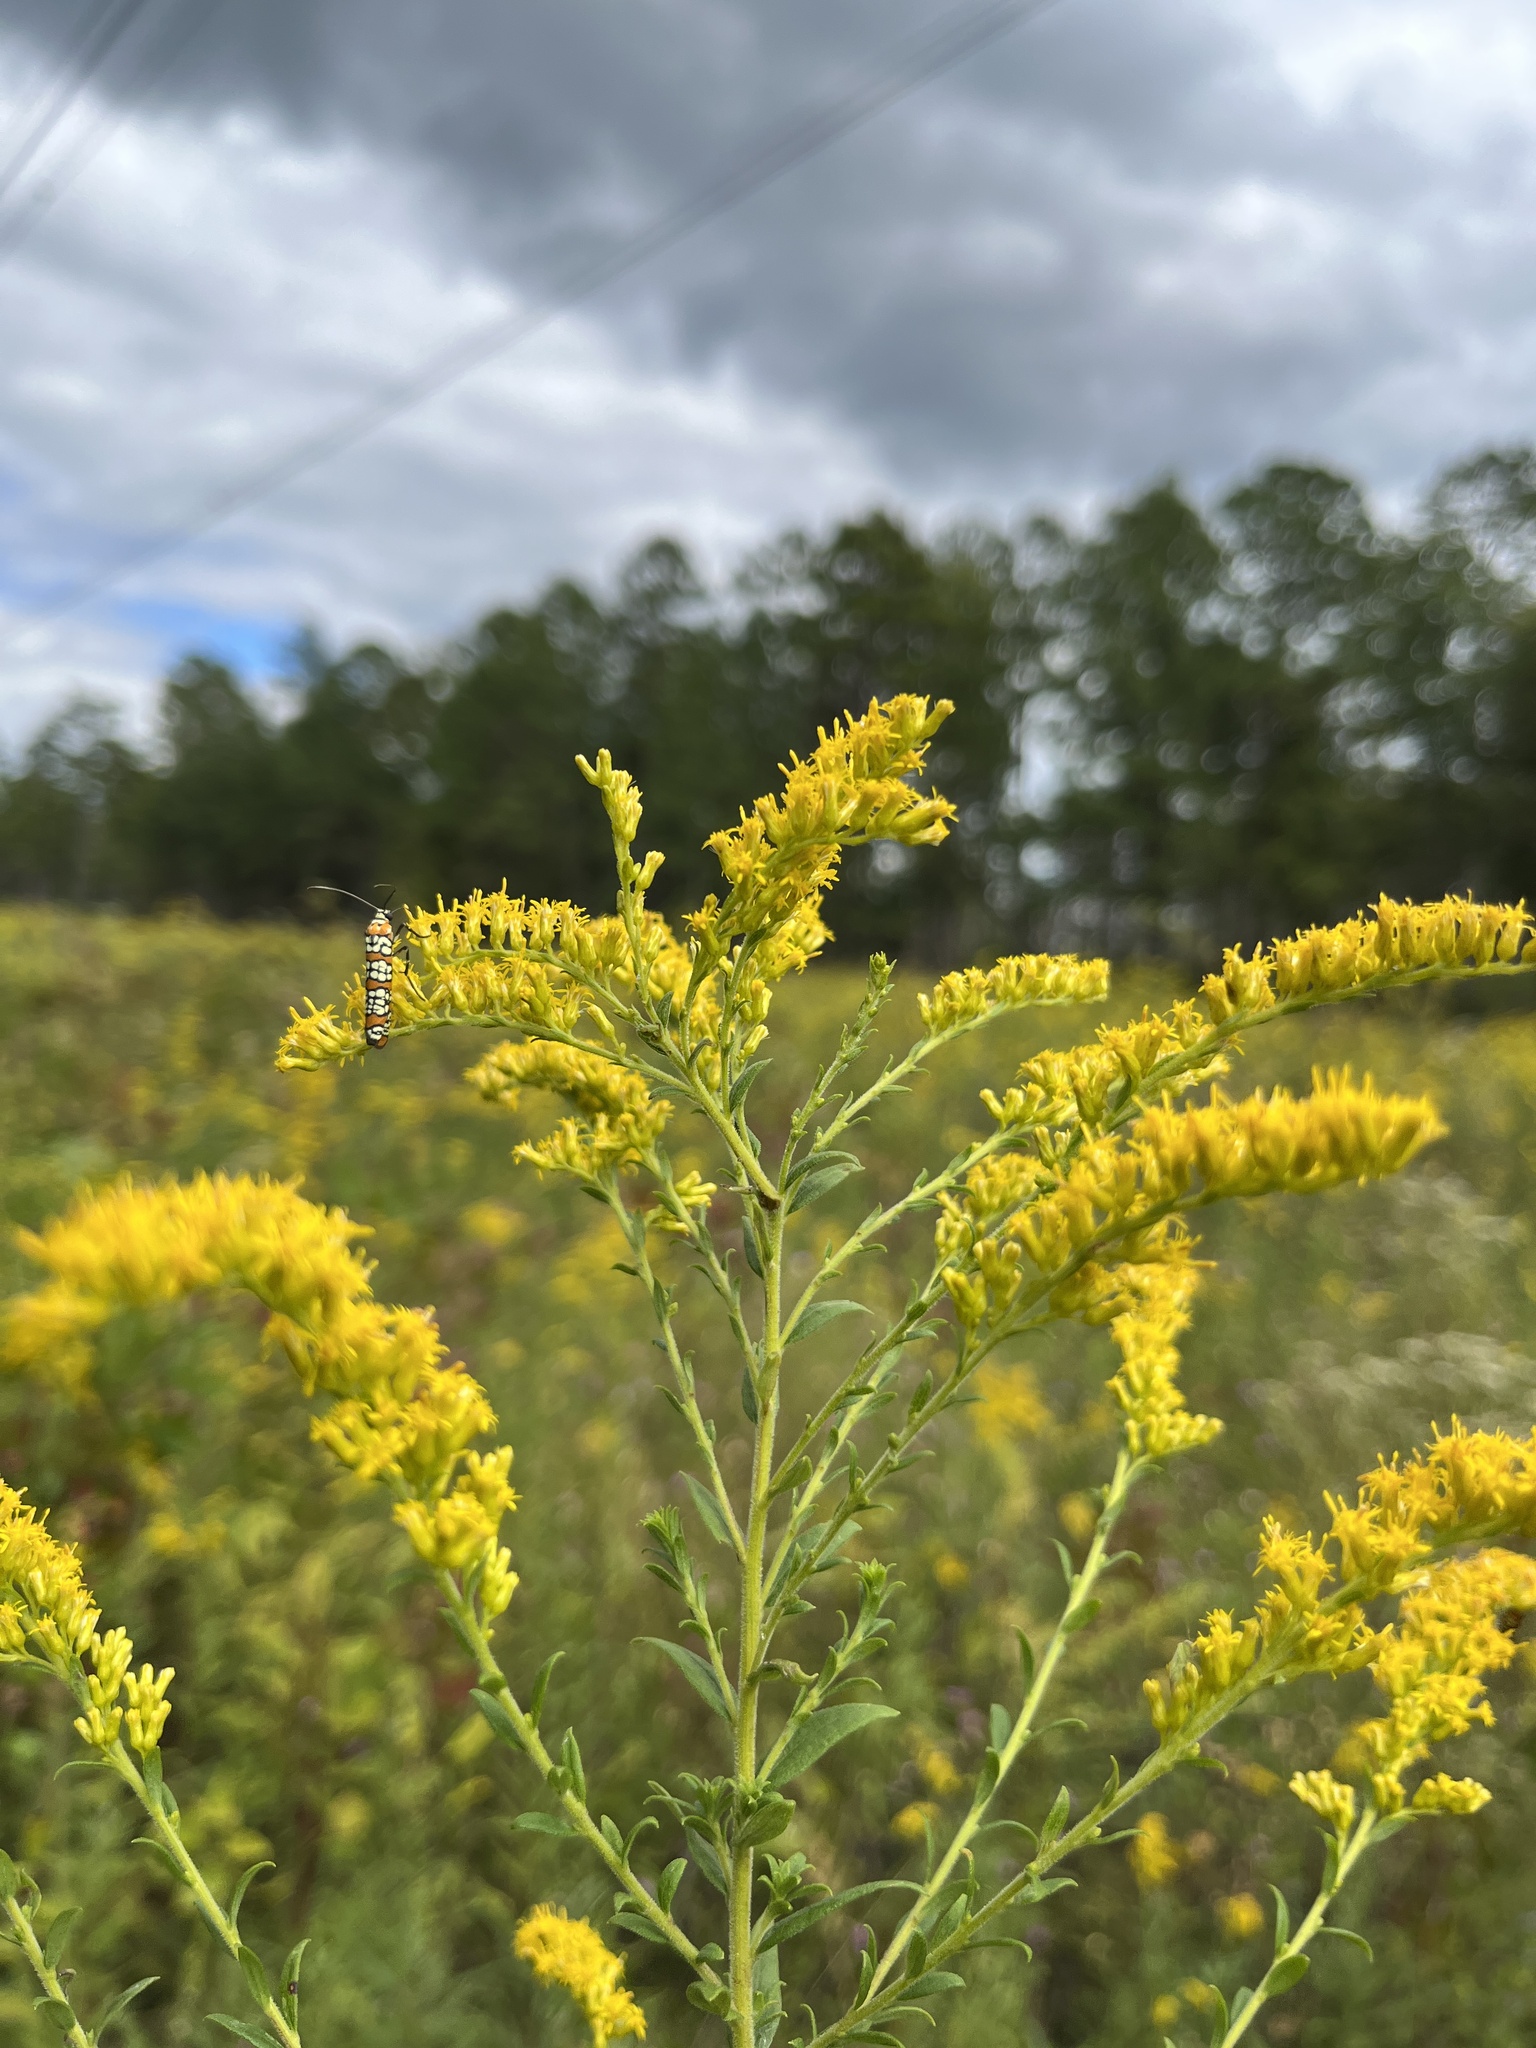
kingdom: Animalia
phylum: Arthropoda
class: Insecta
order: Lepidoptera
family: Attevidae
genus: Atteva
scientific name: Atteva punctella
